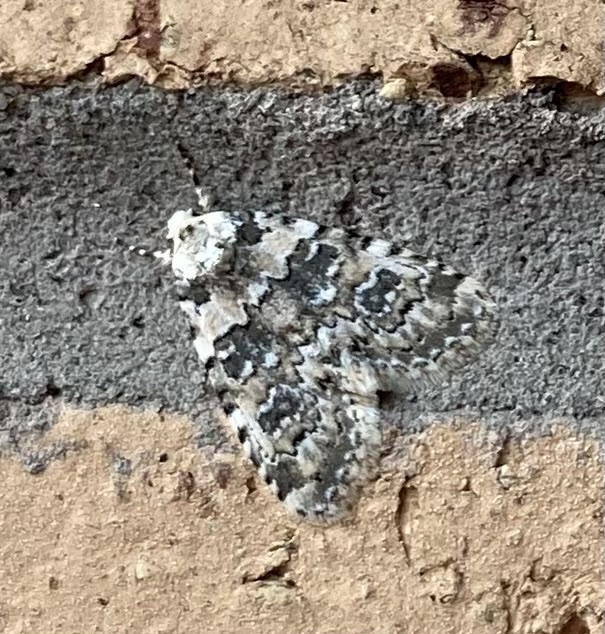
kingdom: Animalia
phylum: Arthropoda
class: Insecta
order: Lepidoptera
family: Noctuidae
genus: Bryophila
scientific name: Bryophila domestica
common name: Marbled beauty
